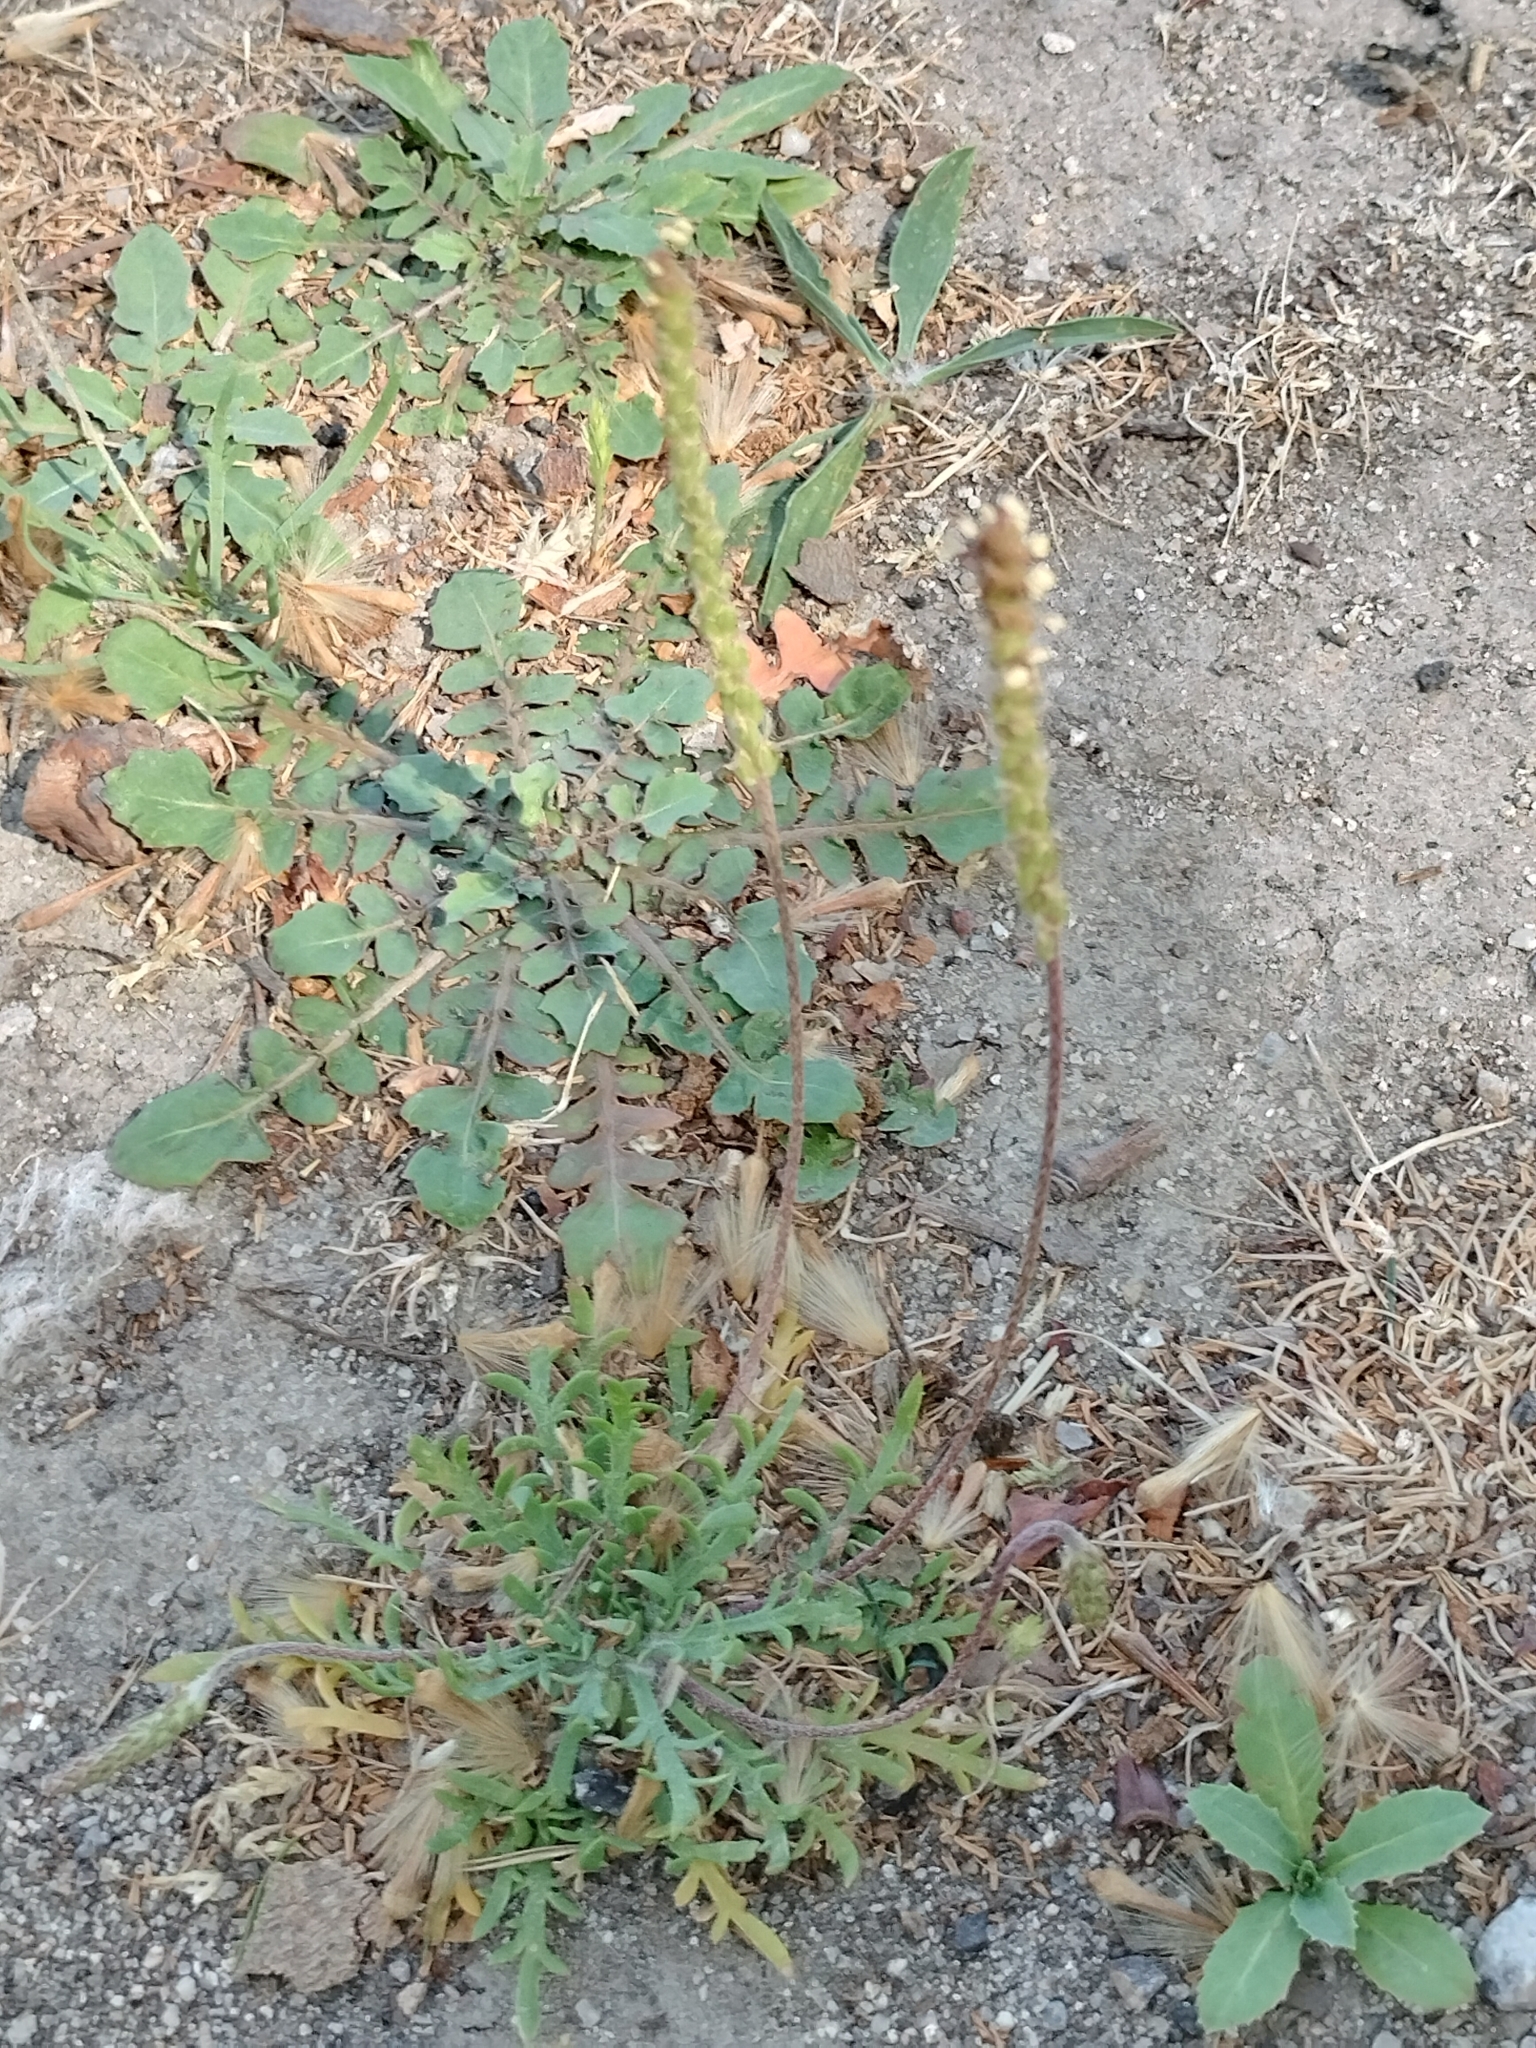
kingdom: Plantae
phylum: Tracheophyta
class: Magnoliopsida
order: Lamiales
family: Plantaginaceae
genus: Plantago
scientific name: Plantago coronopus
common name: Buck's-horn plantain
